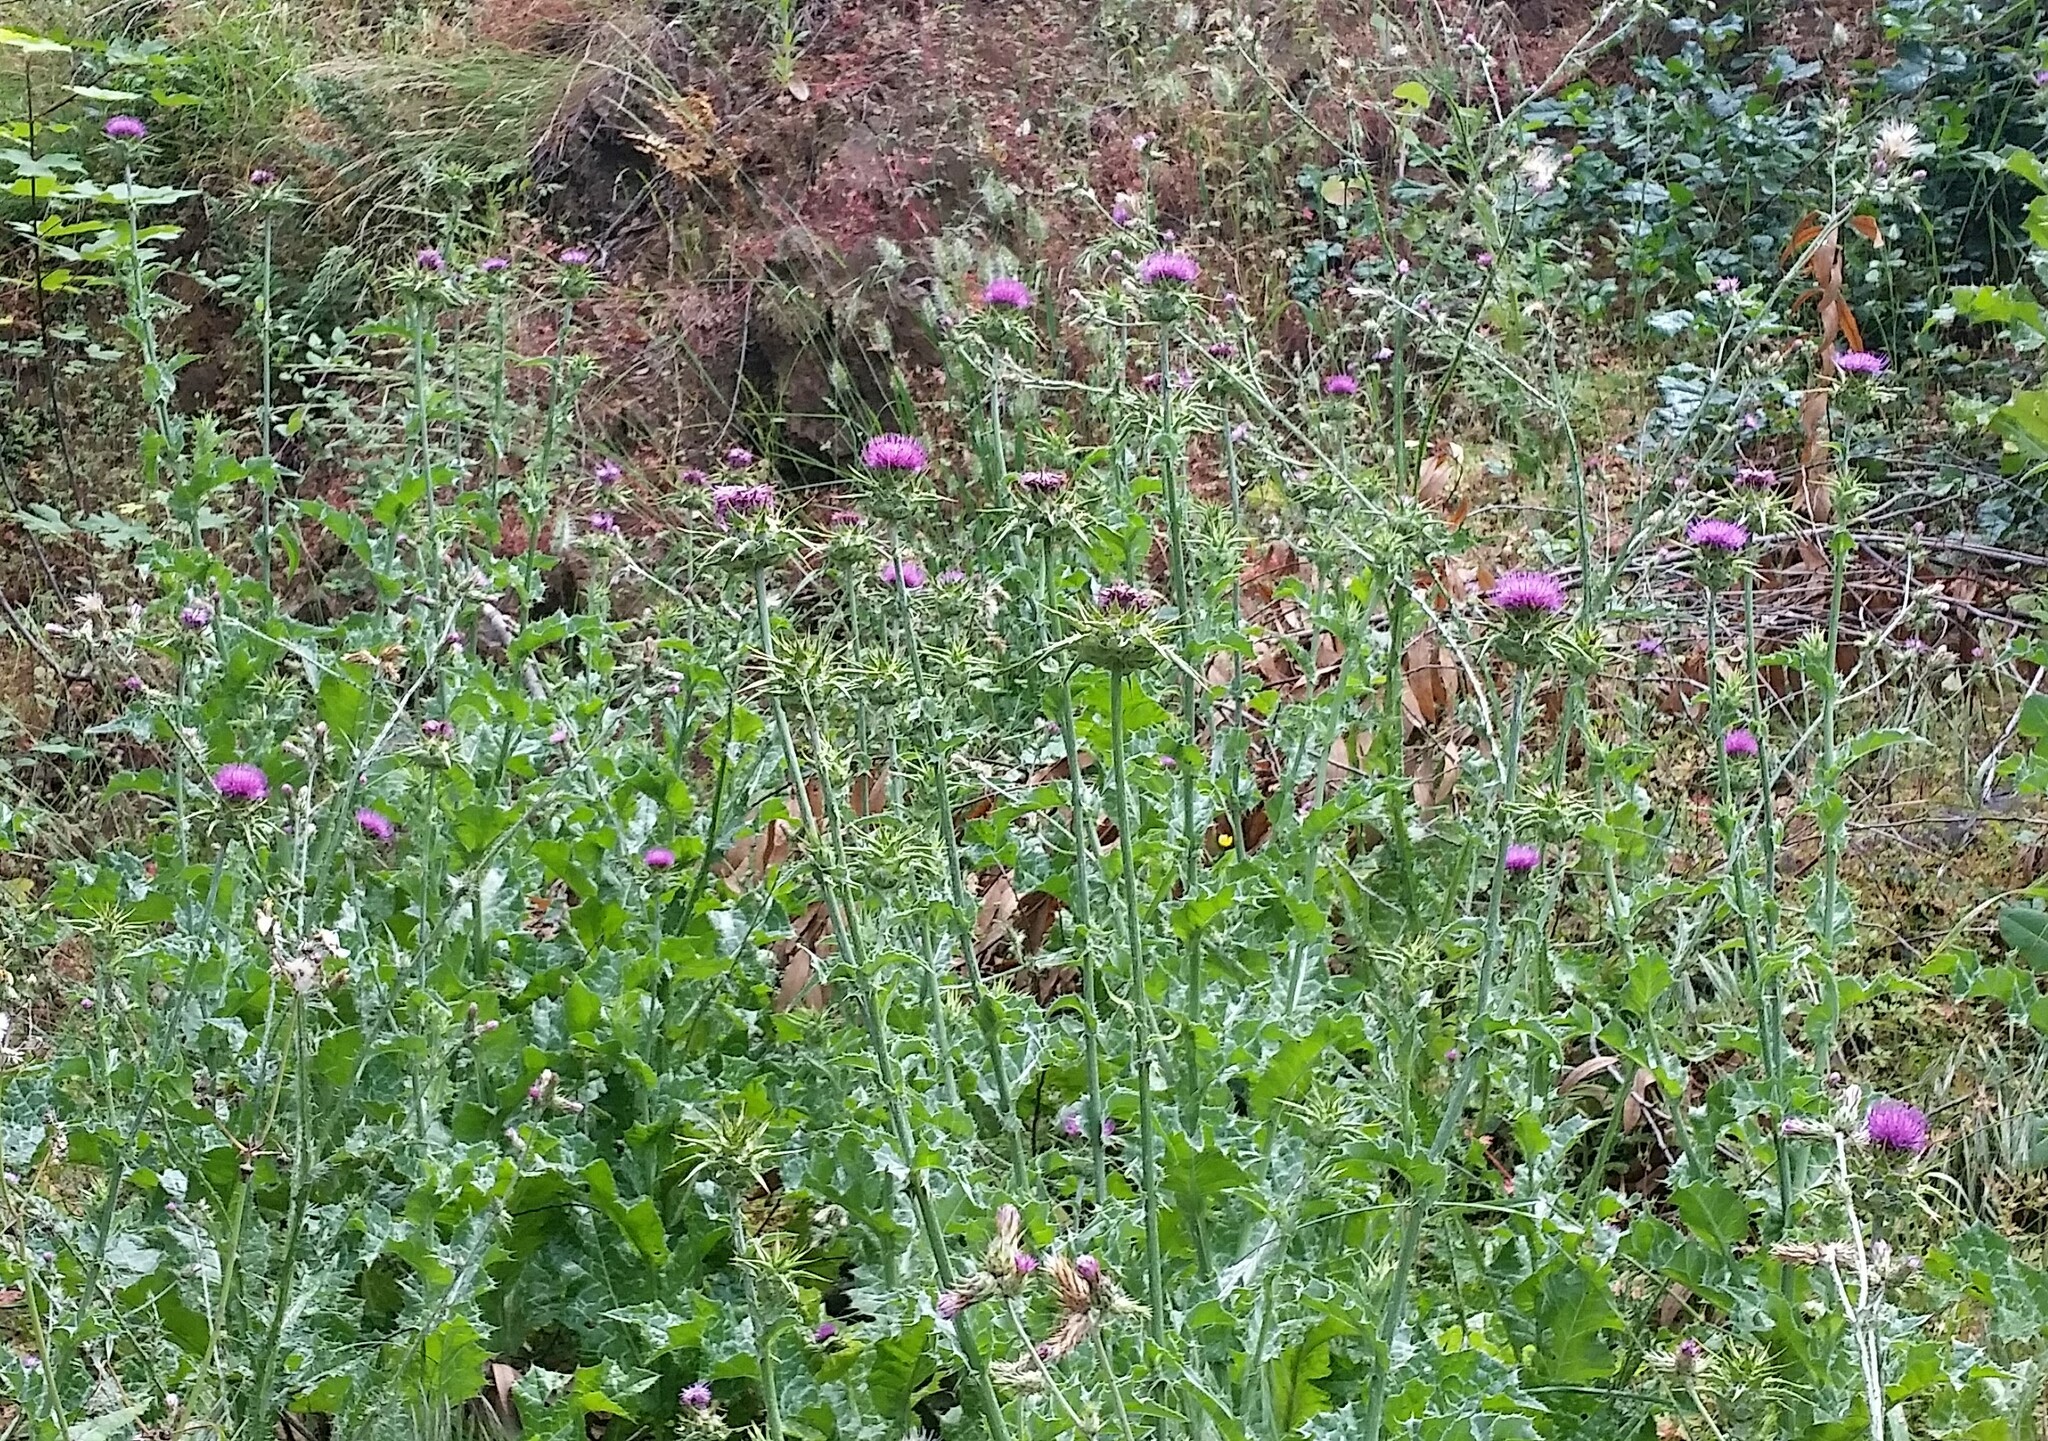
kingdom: Plantae
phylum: Tracheophyta
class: Magnoliopsida
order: Asterales
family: Asteraceae
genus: Silybum
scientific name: Silybum marianum
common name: Milk thistle
